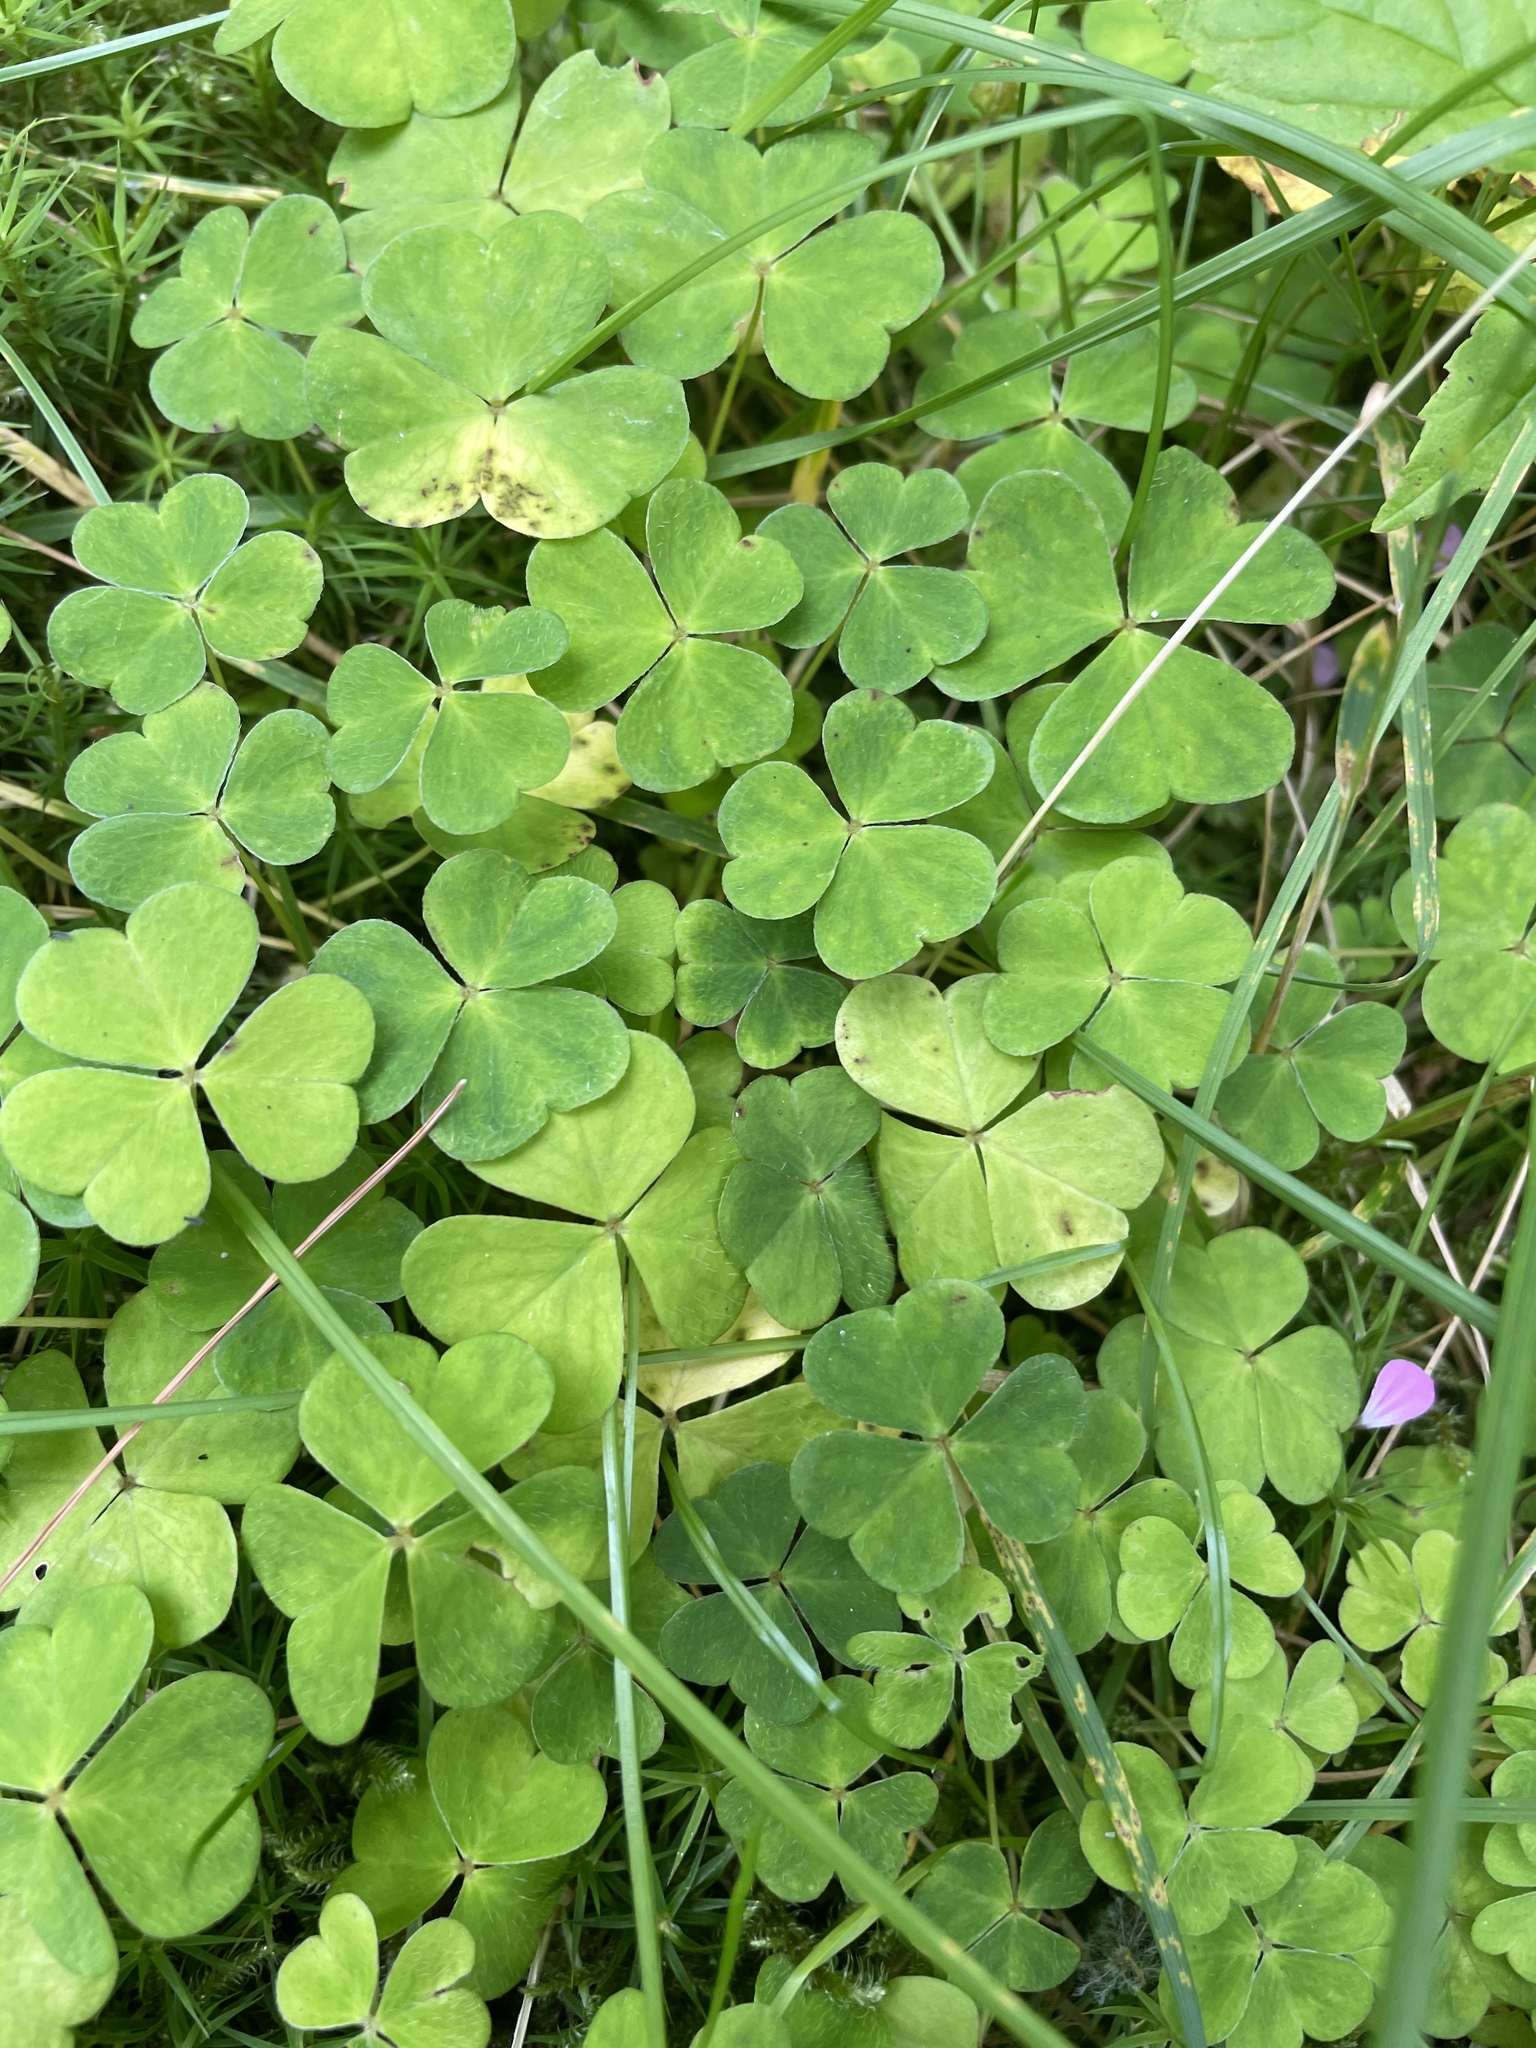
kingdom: Plantae
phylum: Tracheophyta
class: Magnoliopsida
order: Oxalidales
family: Oxalidaceae
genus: Oxalis
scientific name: Oxalis acetosella
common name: Wood-sorrel
